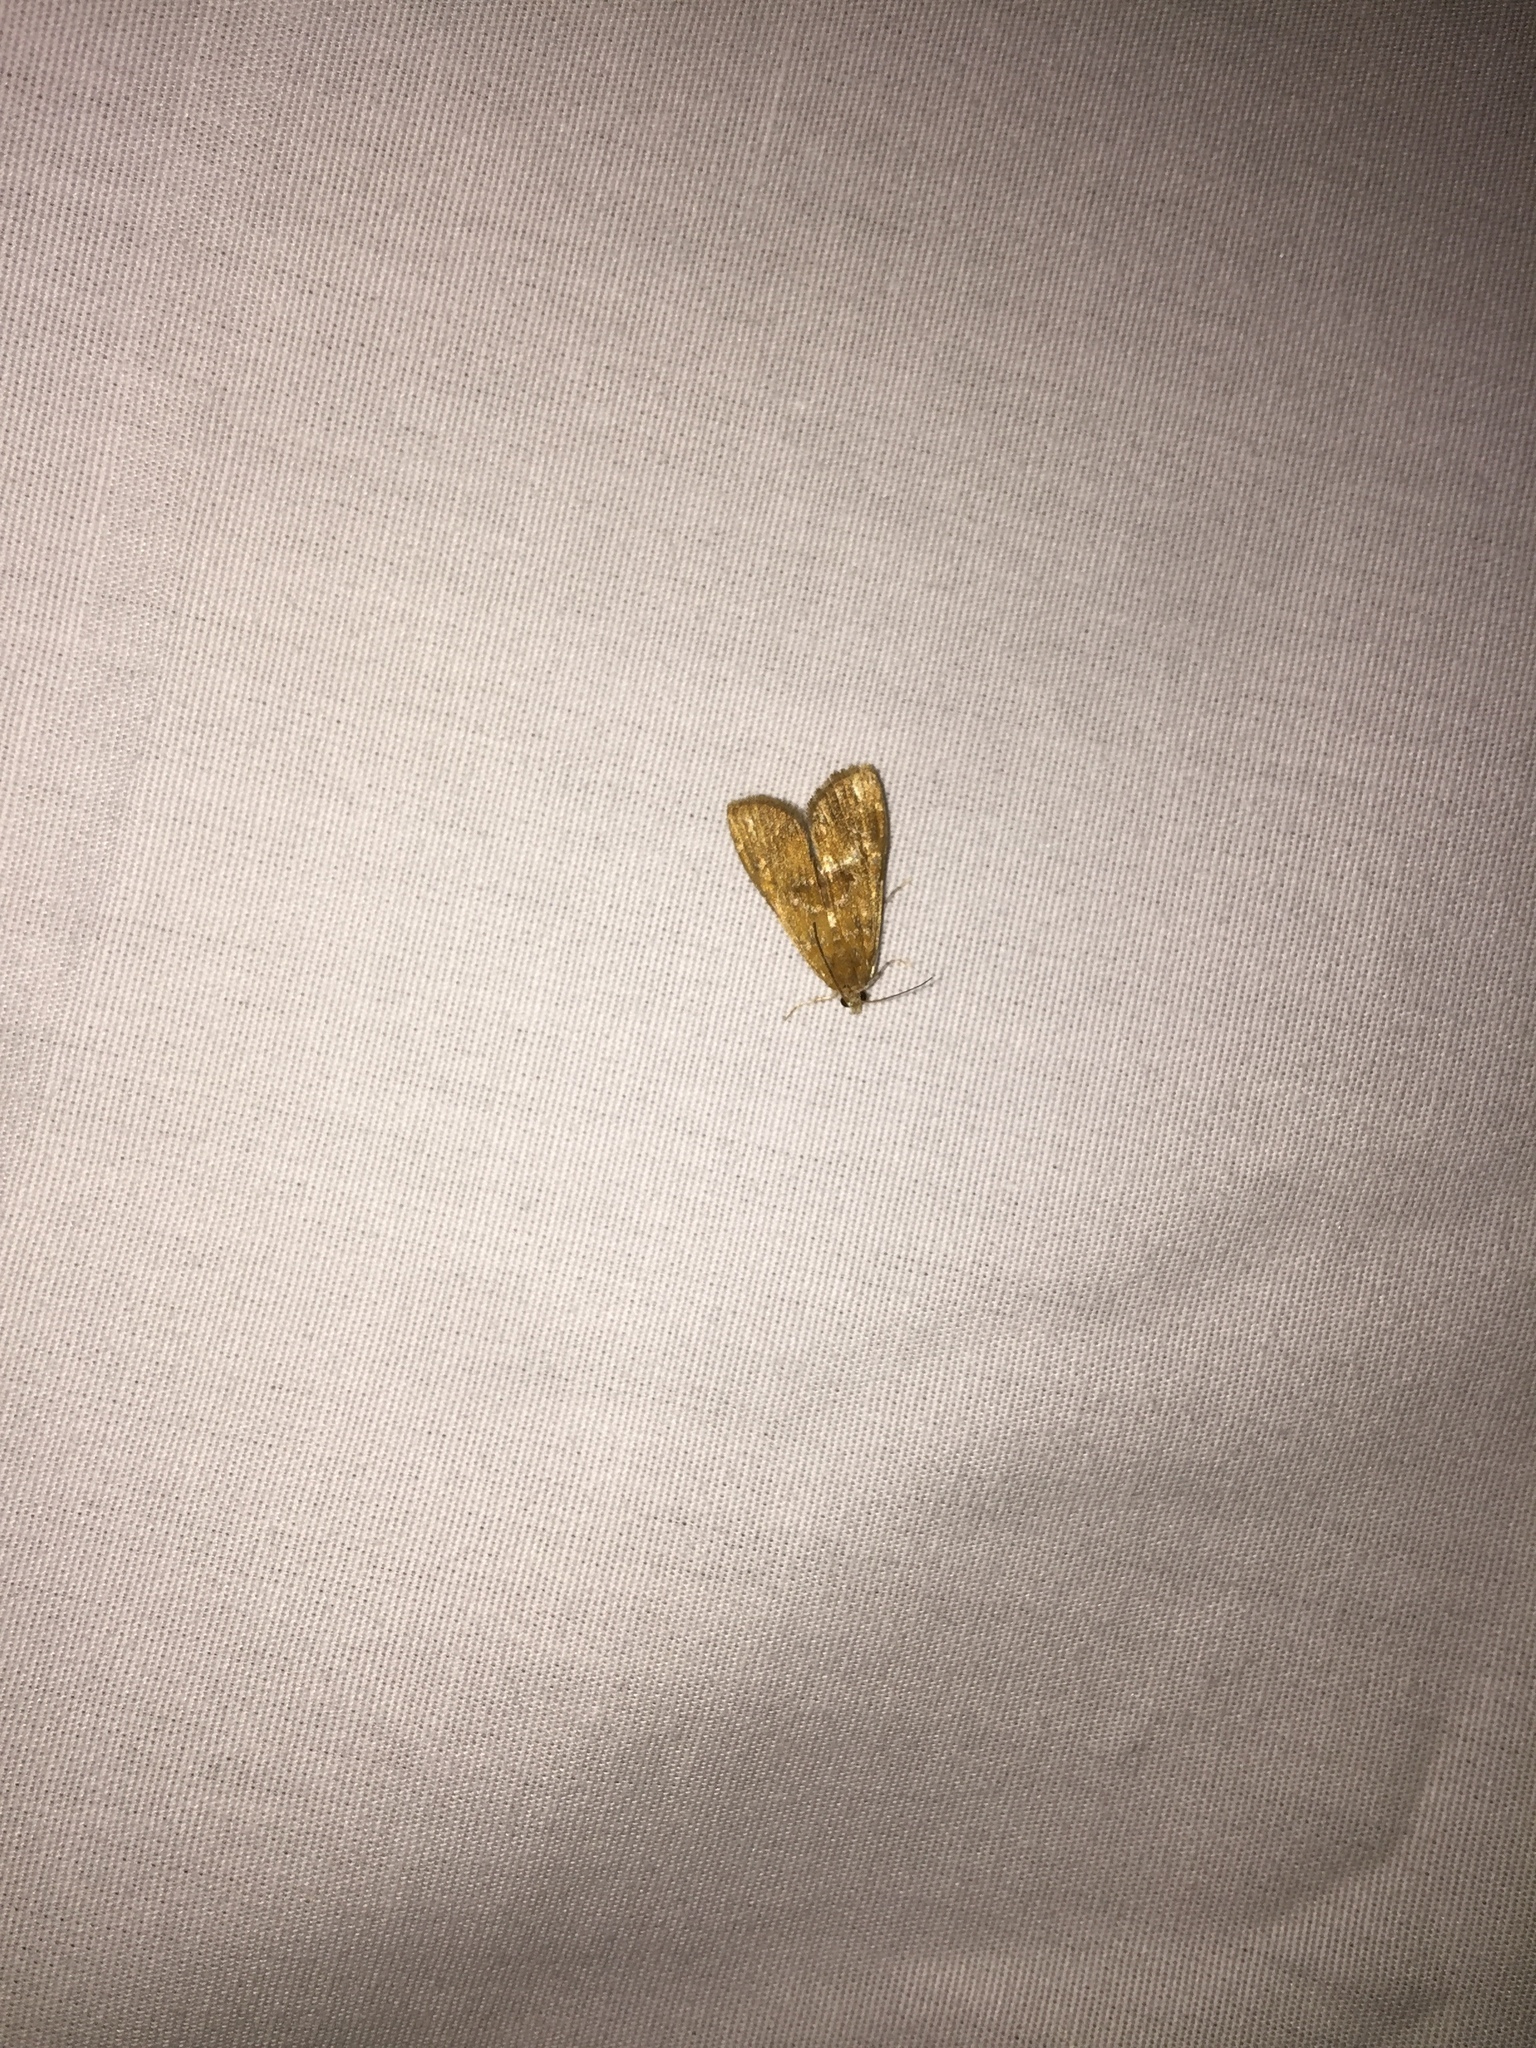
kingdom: Animalia
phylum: Arthropoda
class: Insecta
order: Lepidoptera
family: Crambidae
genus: Elophila
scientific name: Elophila gyralis
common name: Waterlily borer moth
